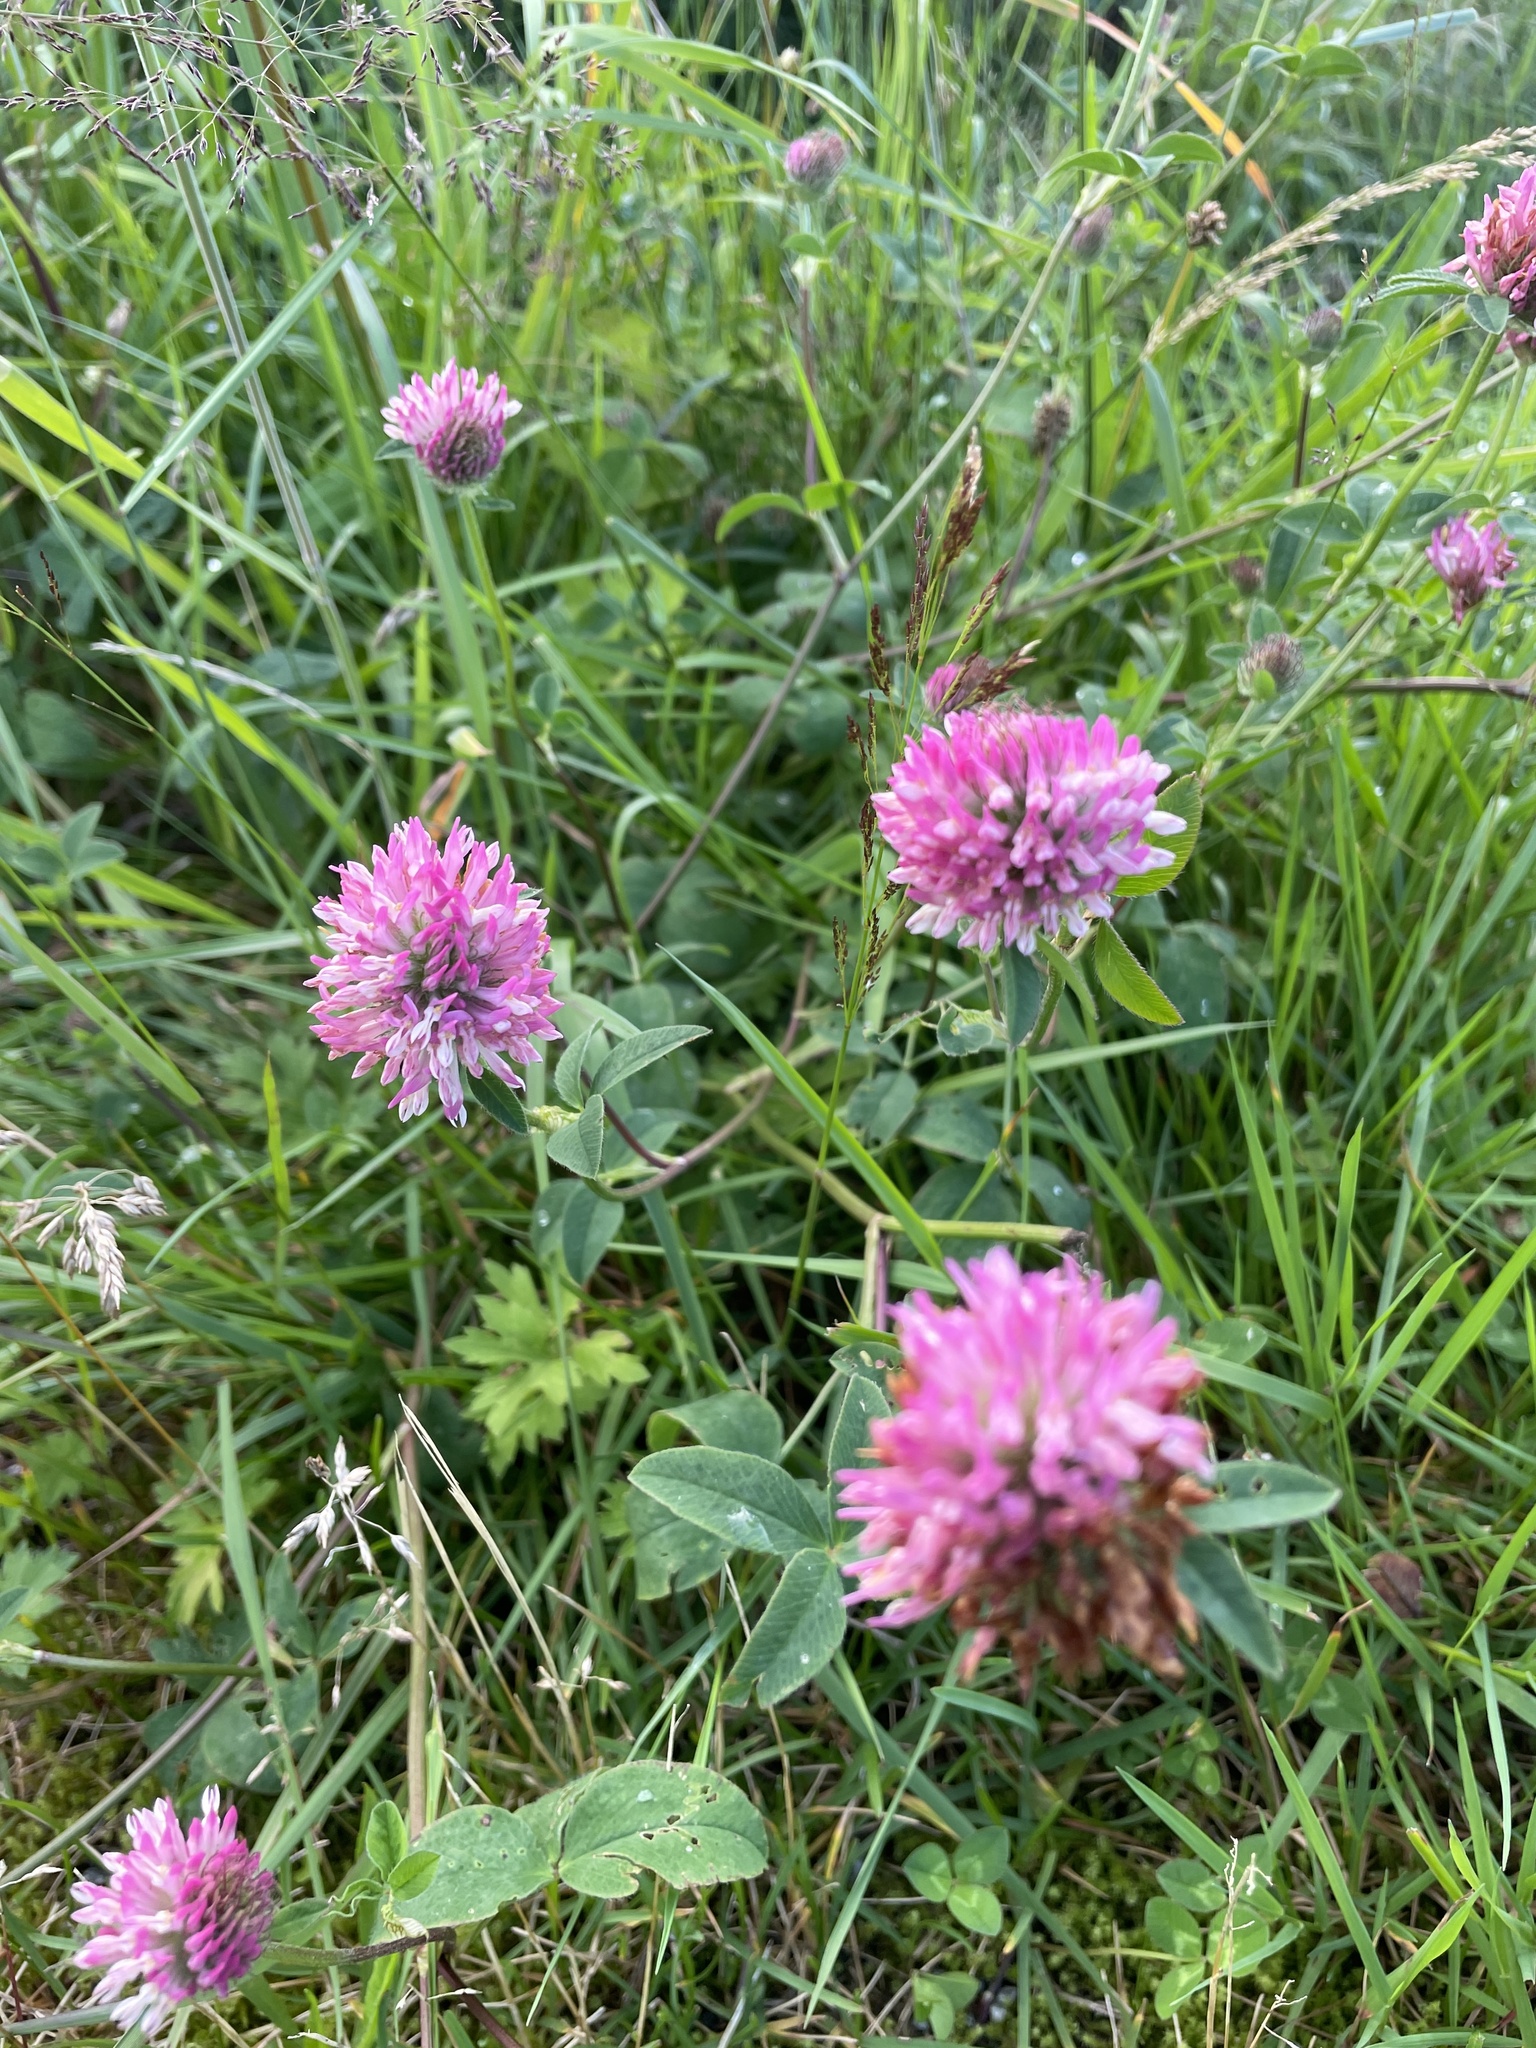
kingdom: Plantae
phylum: Tracheophyta
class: Magnoliopsida
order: Fabales
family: Fabaceae
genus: Trifolium
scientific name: Trifolium pratense
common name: Red clover
